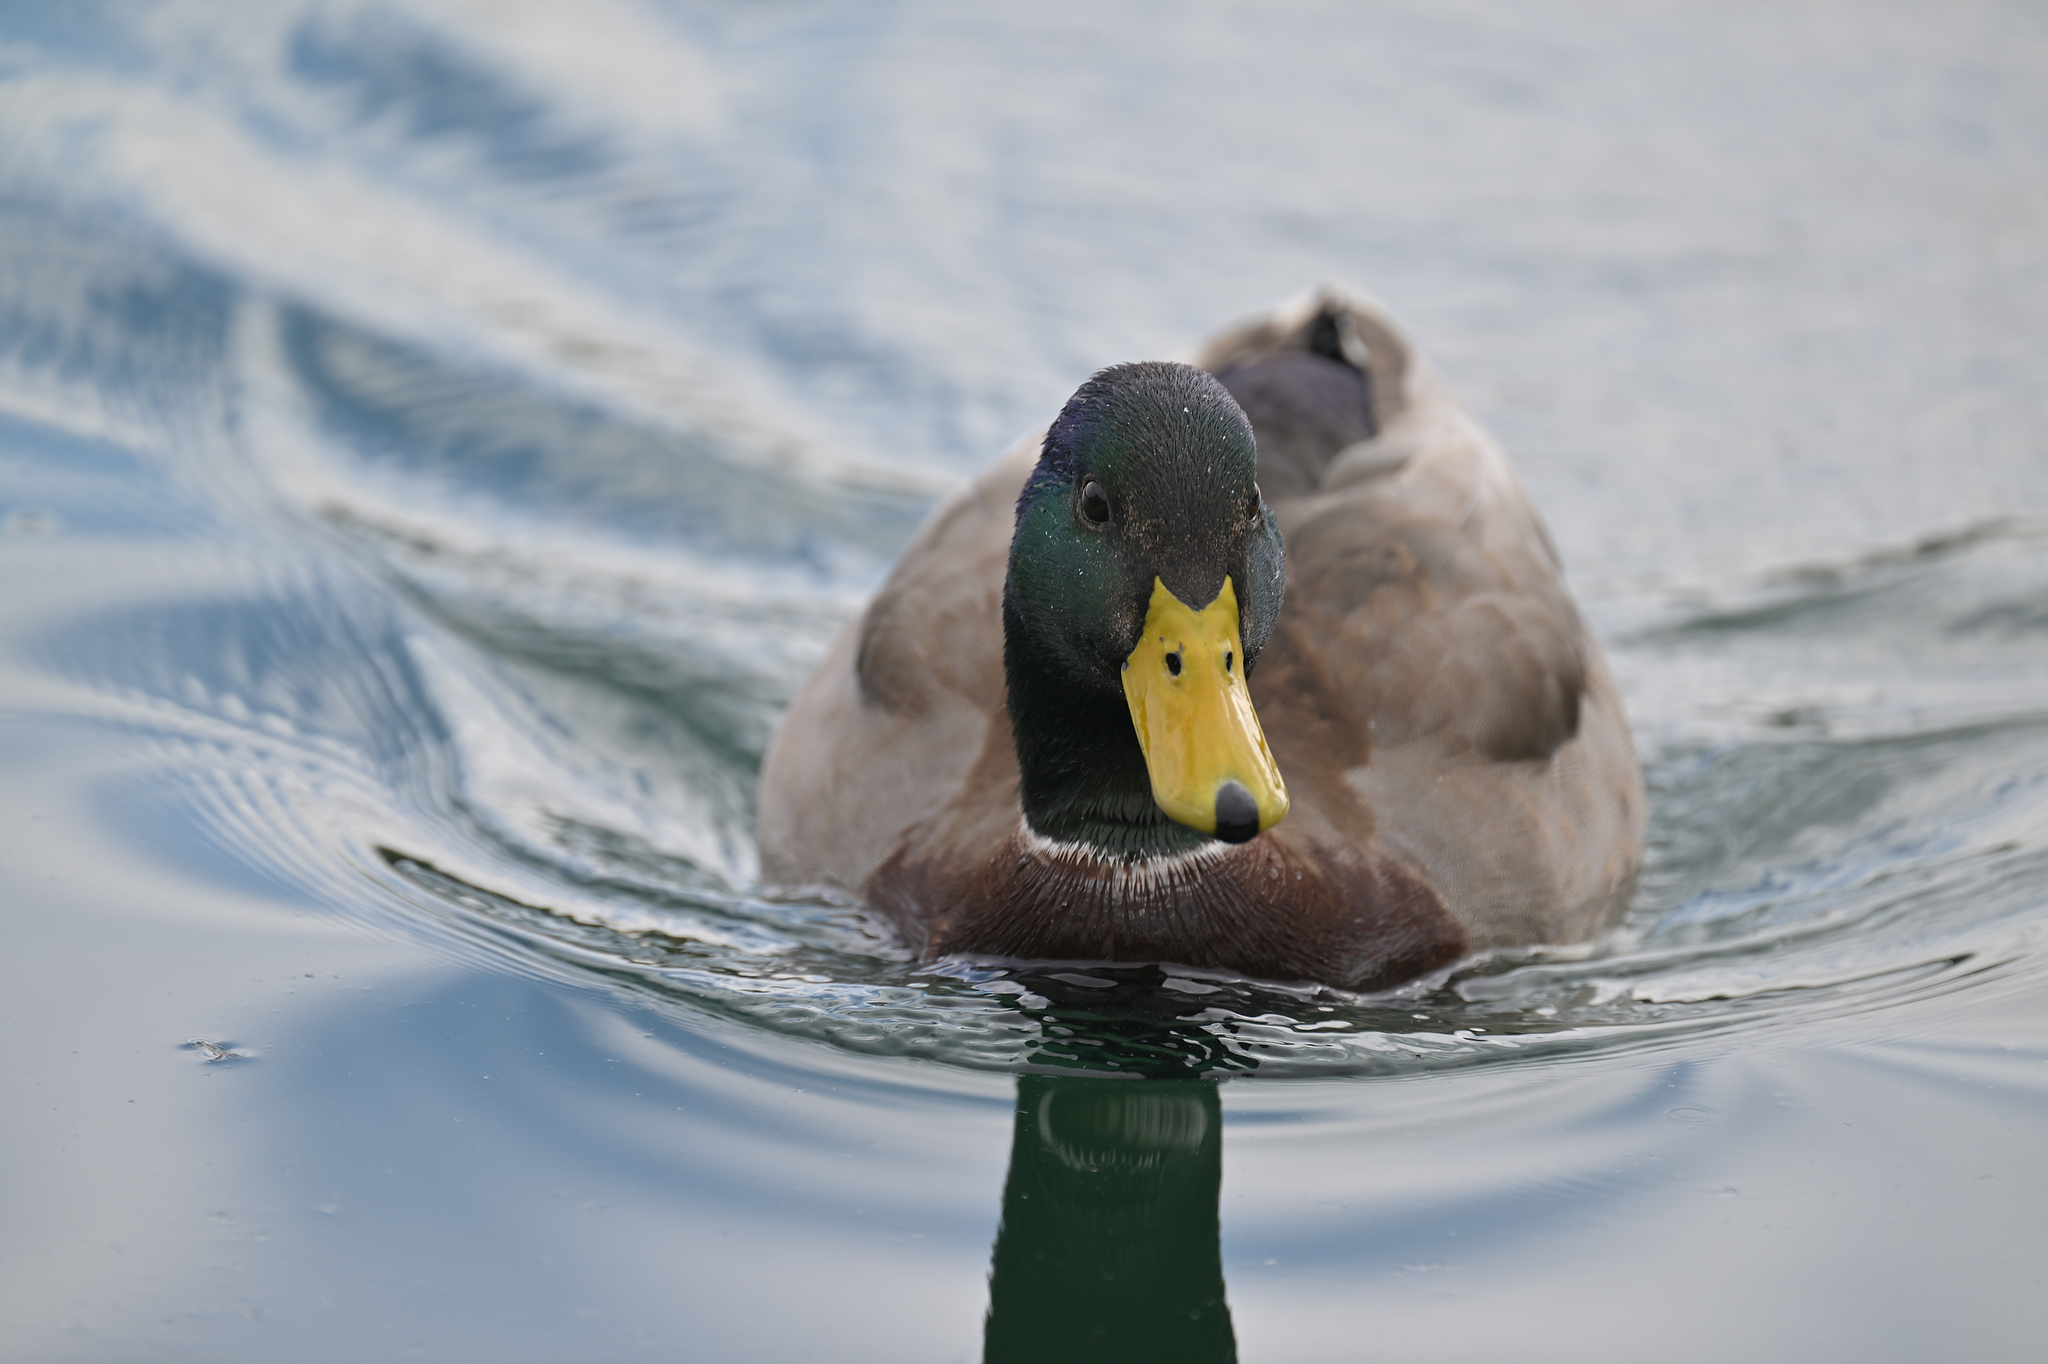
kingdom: Animalia
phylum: Chordata
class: Aves
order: Anseriformes
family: Anatidae
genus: Anas
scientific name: Anas platyrhynchos
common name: Mallard
